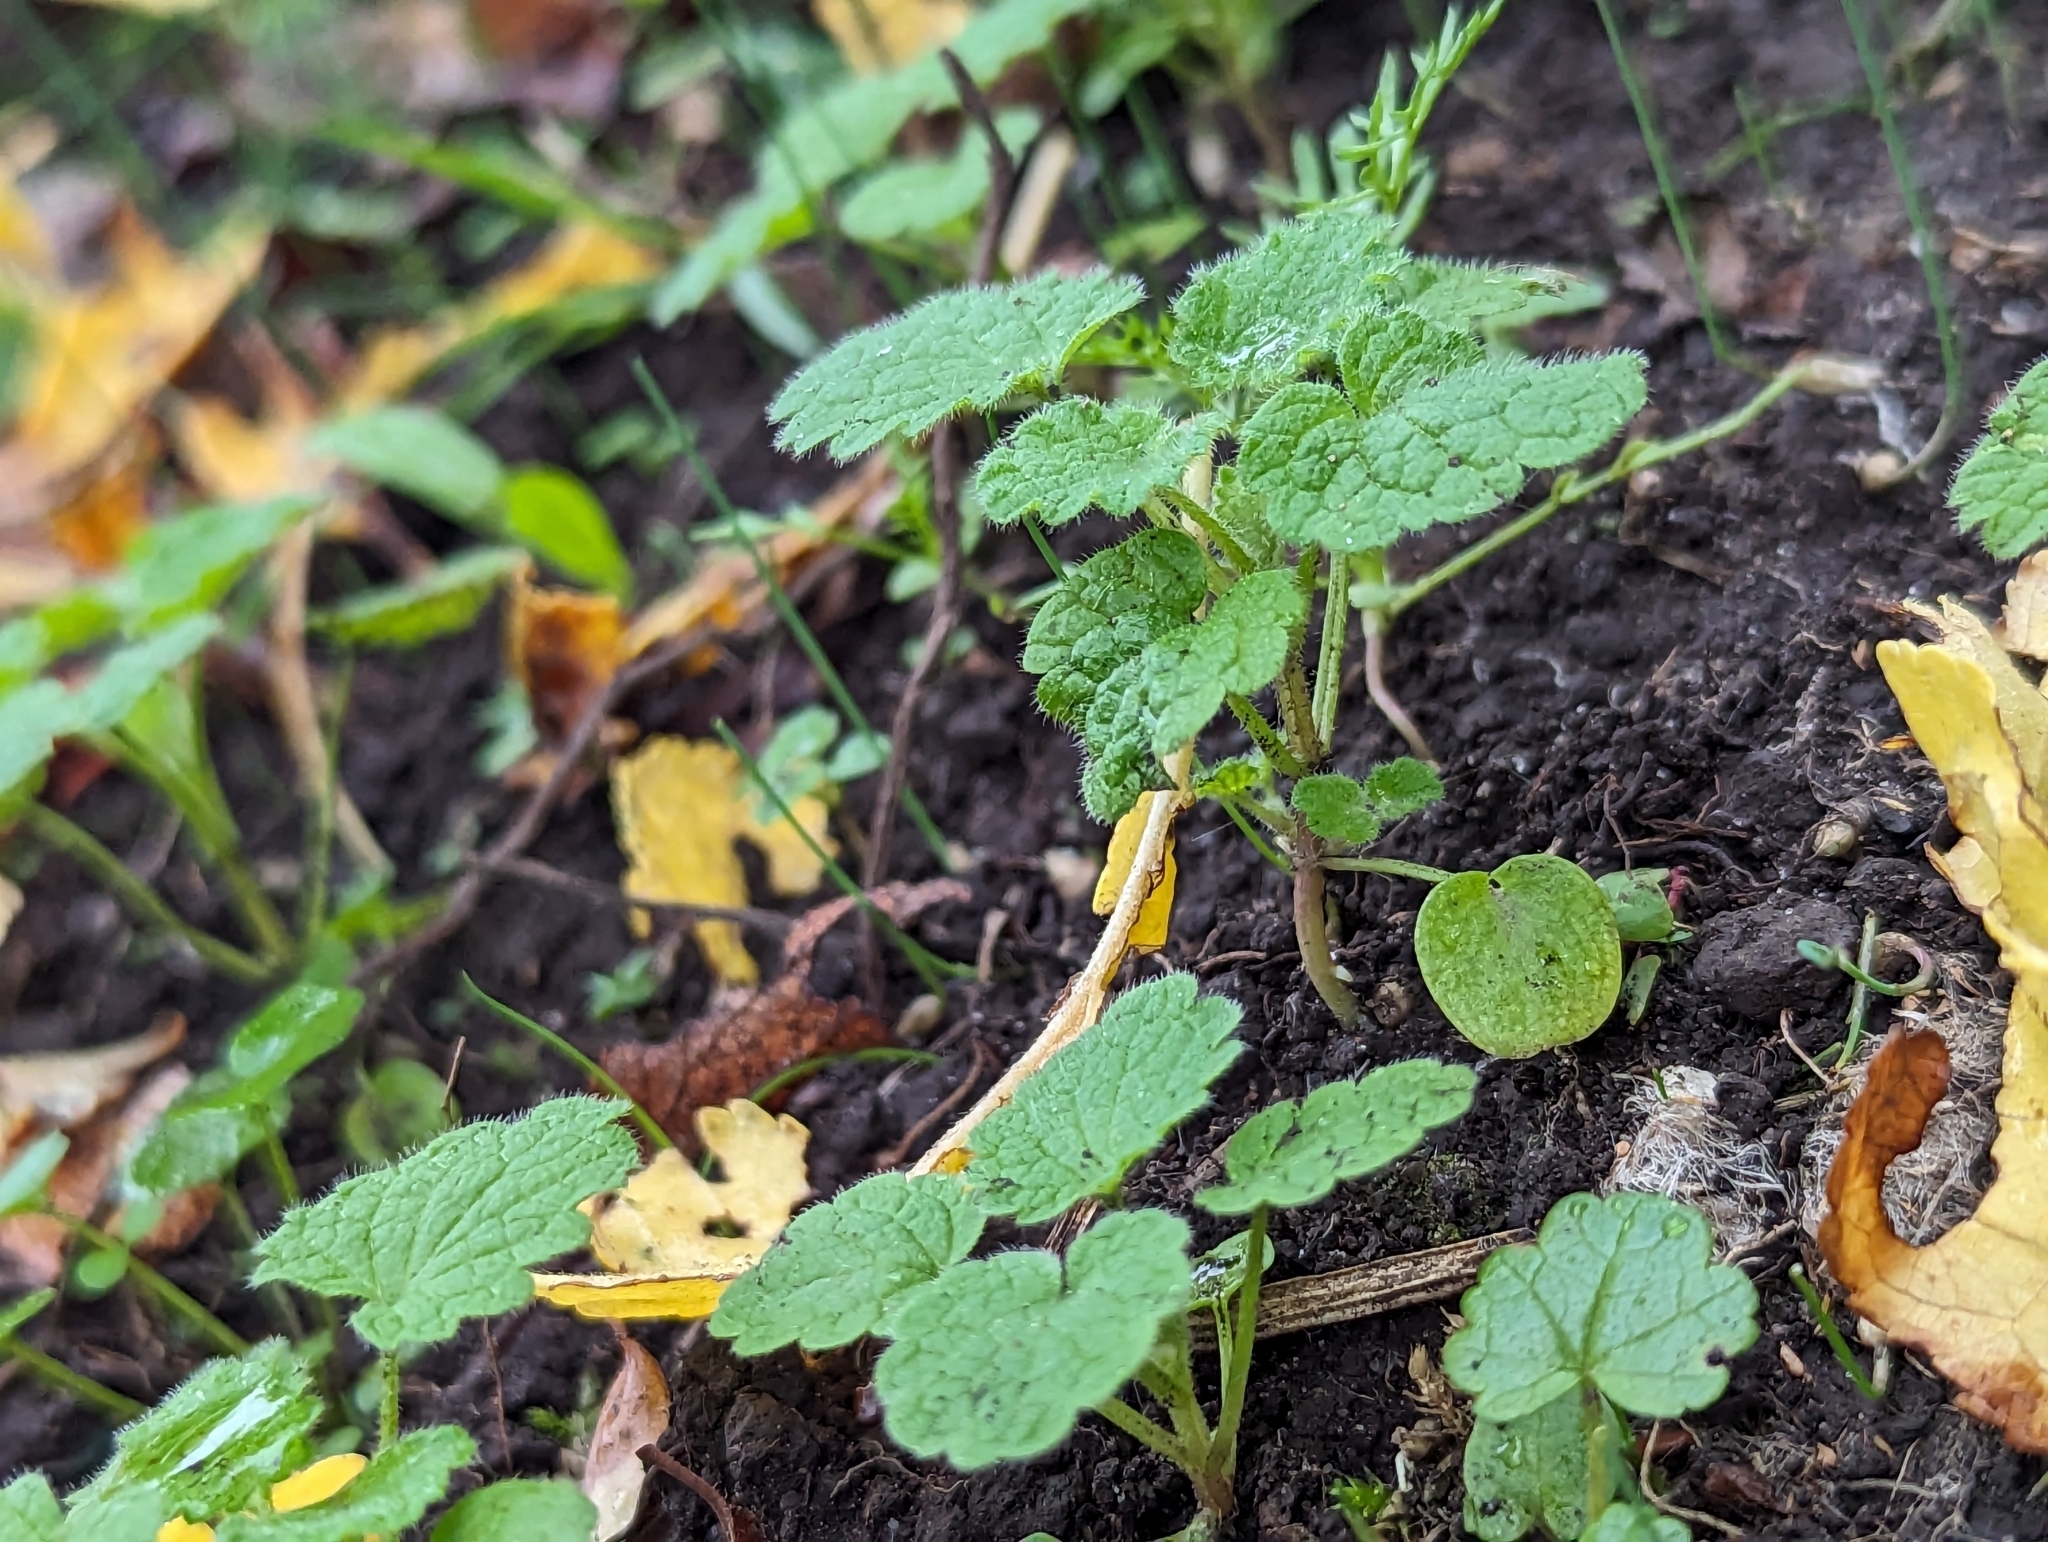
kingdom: Plantae
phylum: Tracheophyta
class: Magnoliopsida
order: Lamiales
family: Lamiaceae
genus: Lamium
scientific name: Lamium purpureum
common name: Red dead-nettle
